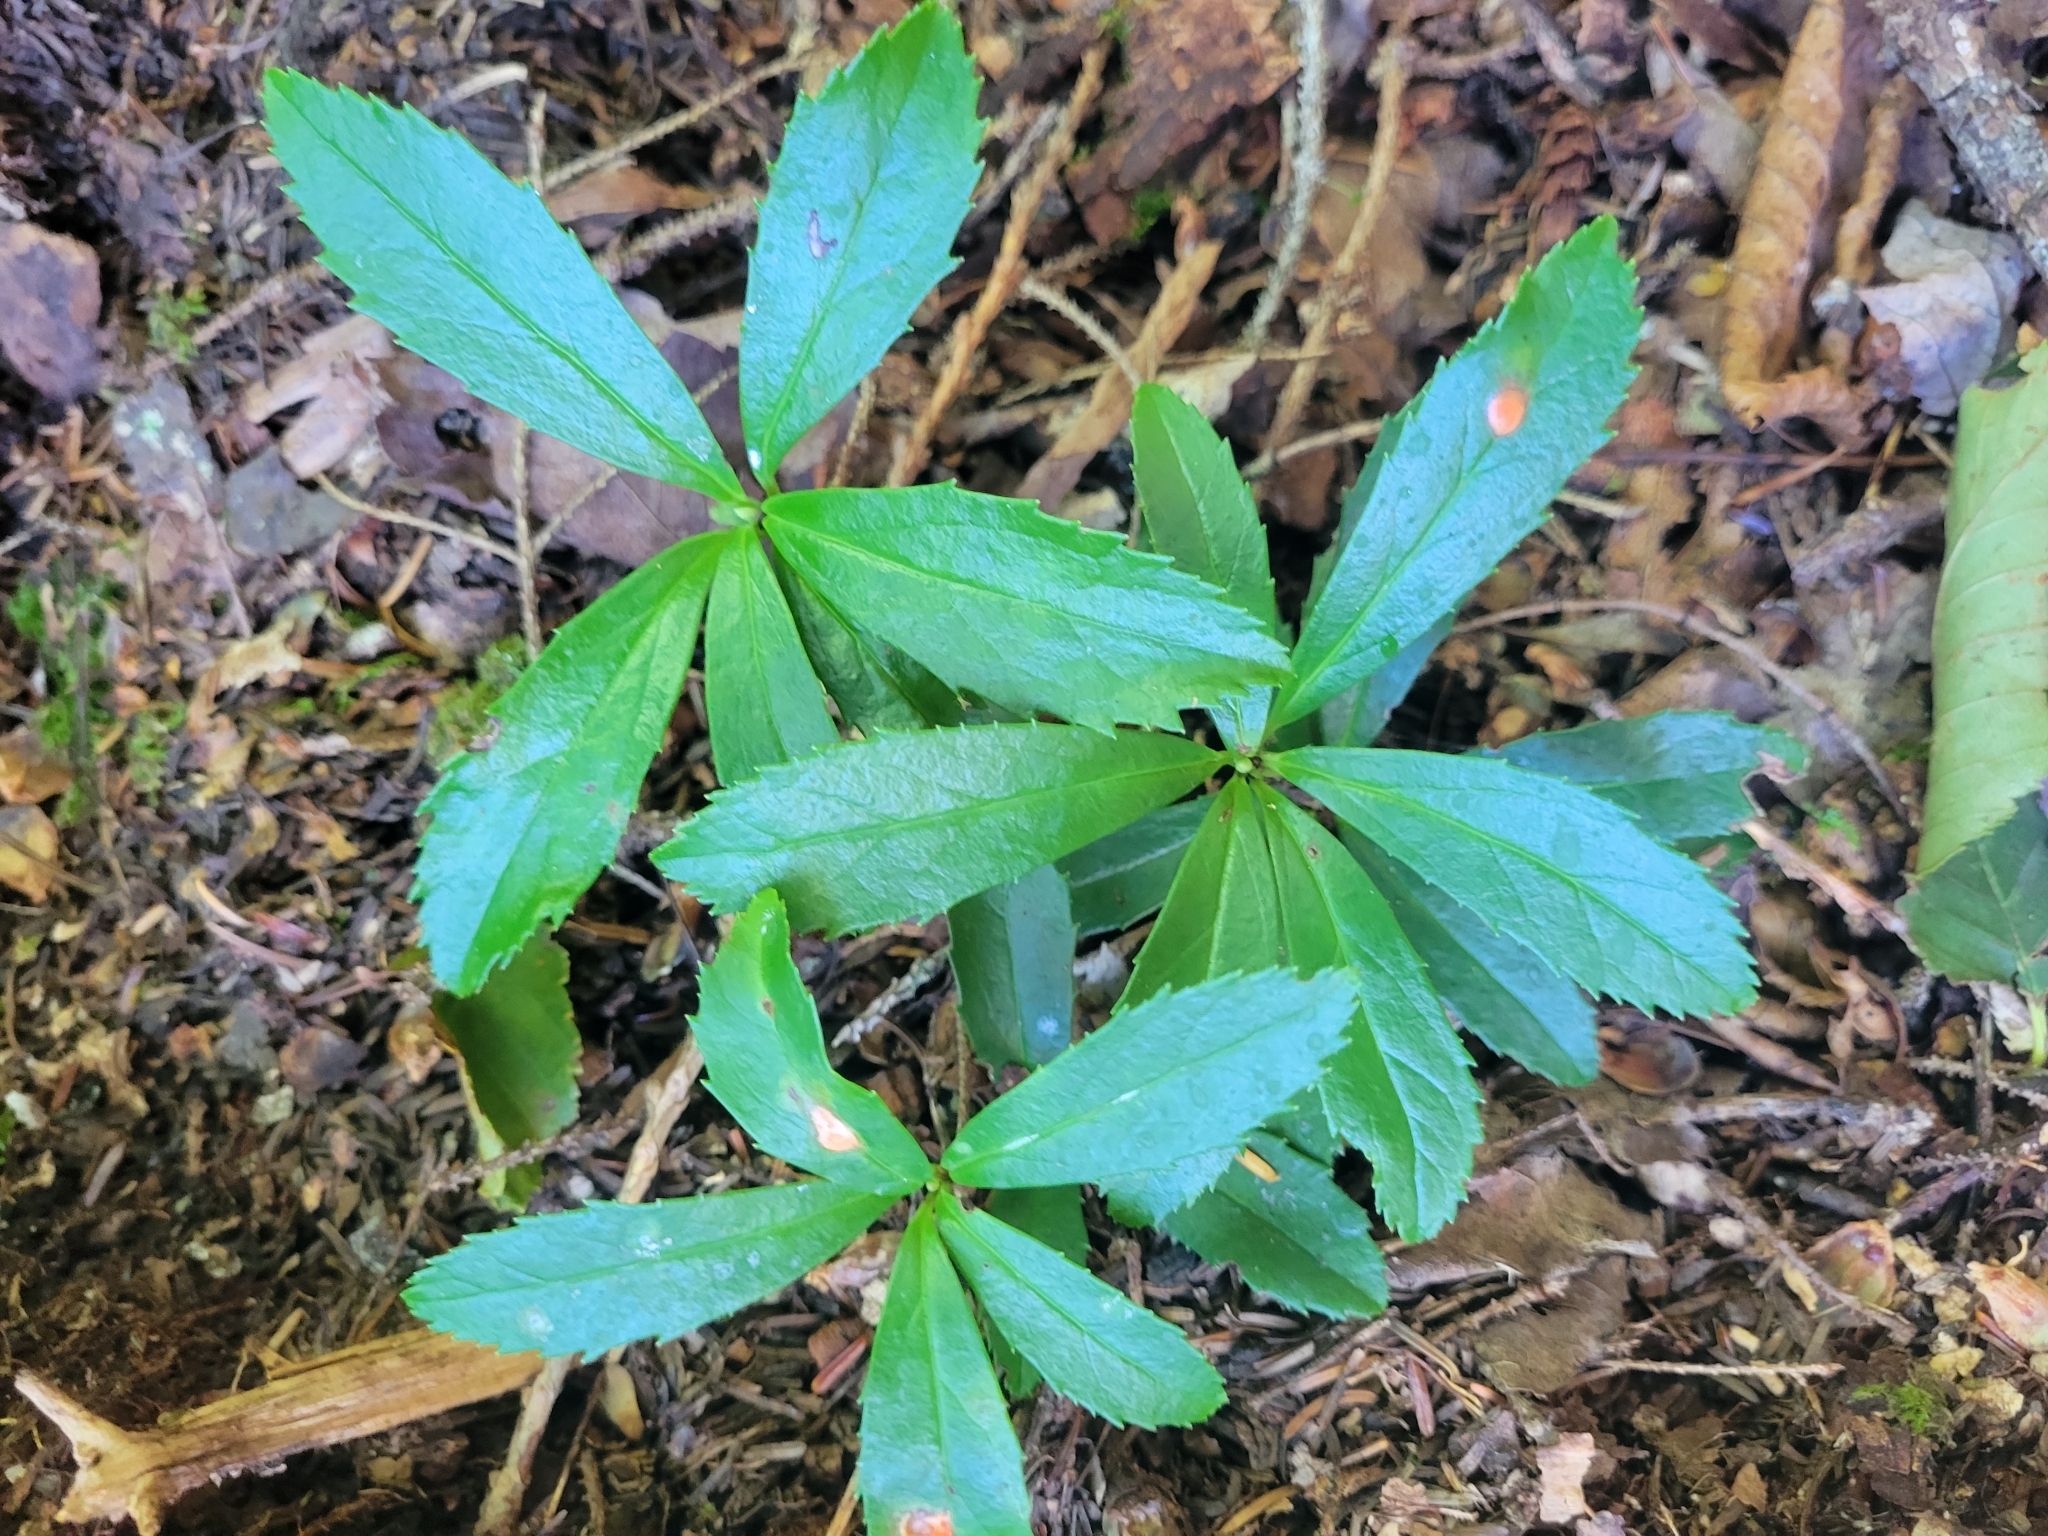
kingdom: Plantae
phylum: Tracheophyta
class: Magnoliopsida
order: Ericales
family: Ericaceae
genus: Chimaphila
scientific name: Chimaphila umbellata
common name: Pipsissewa
